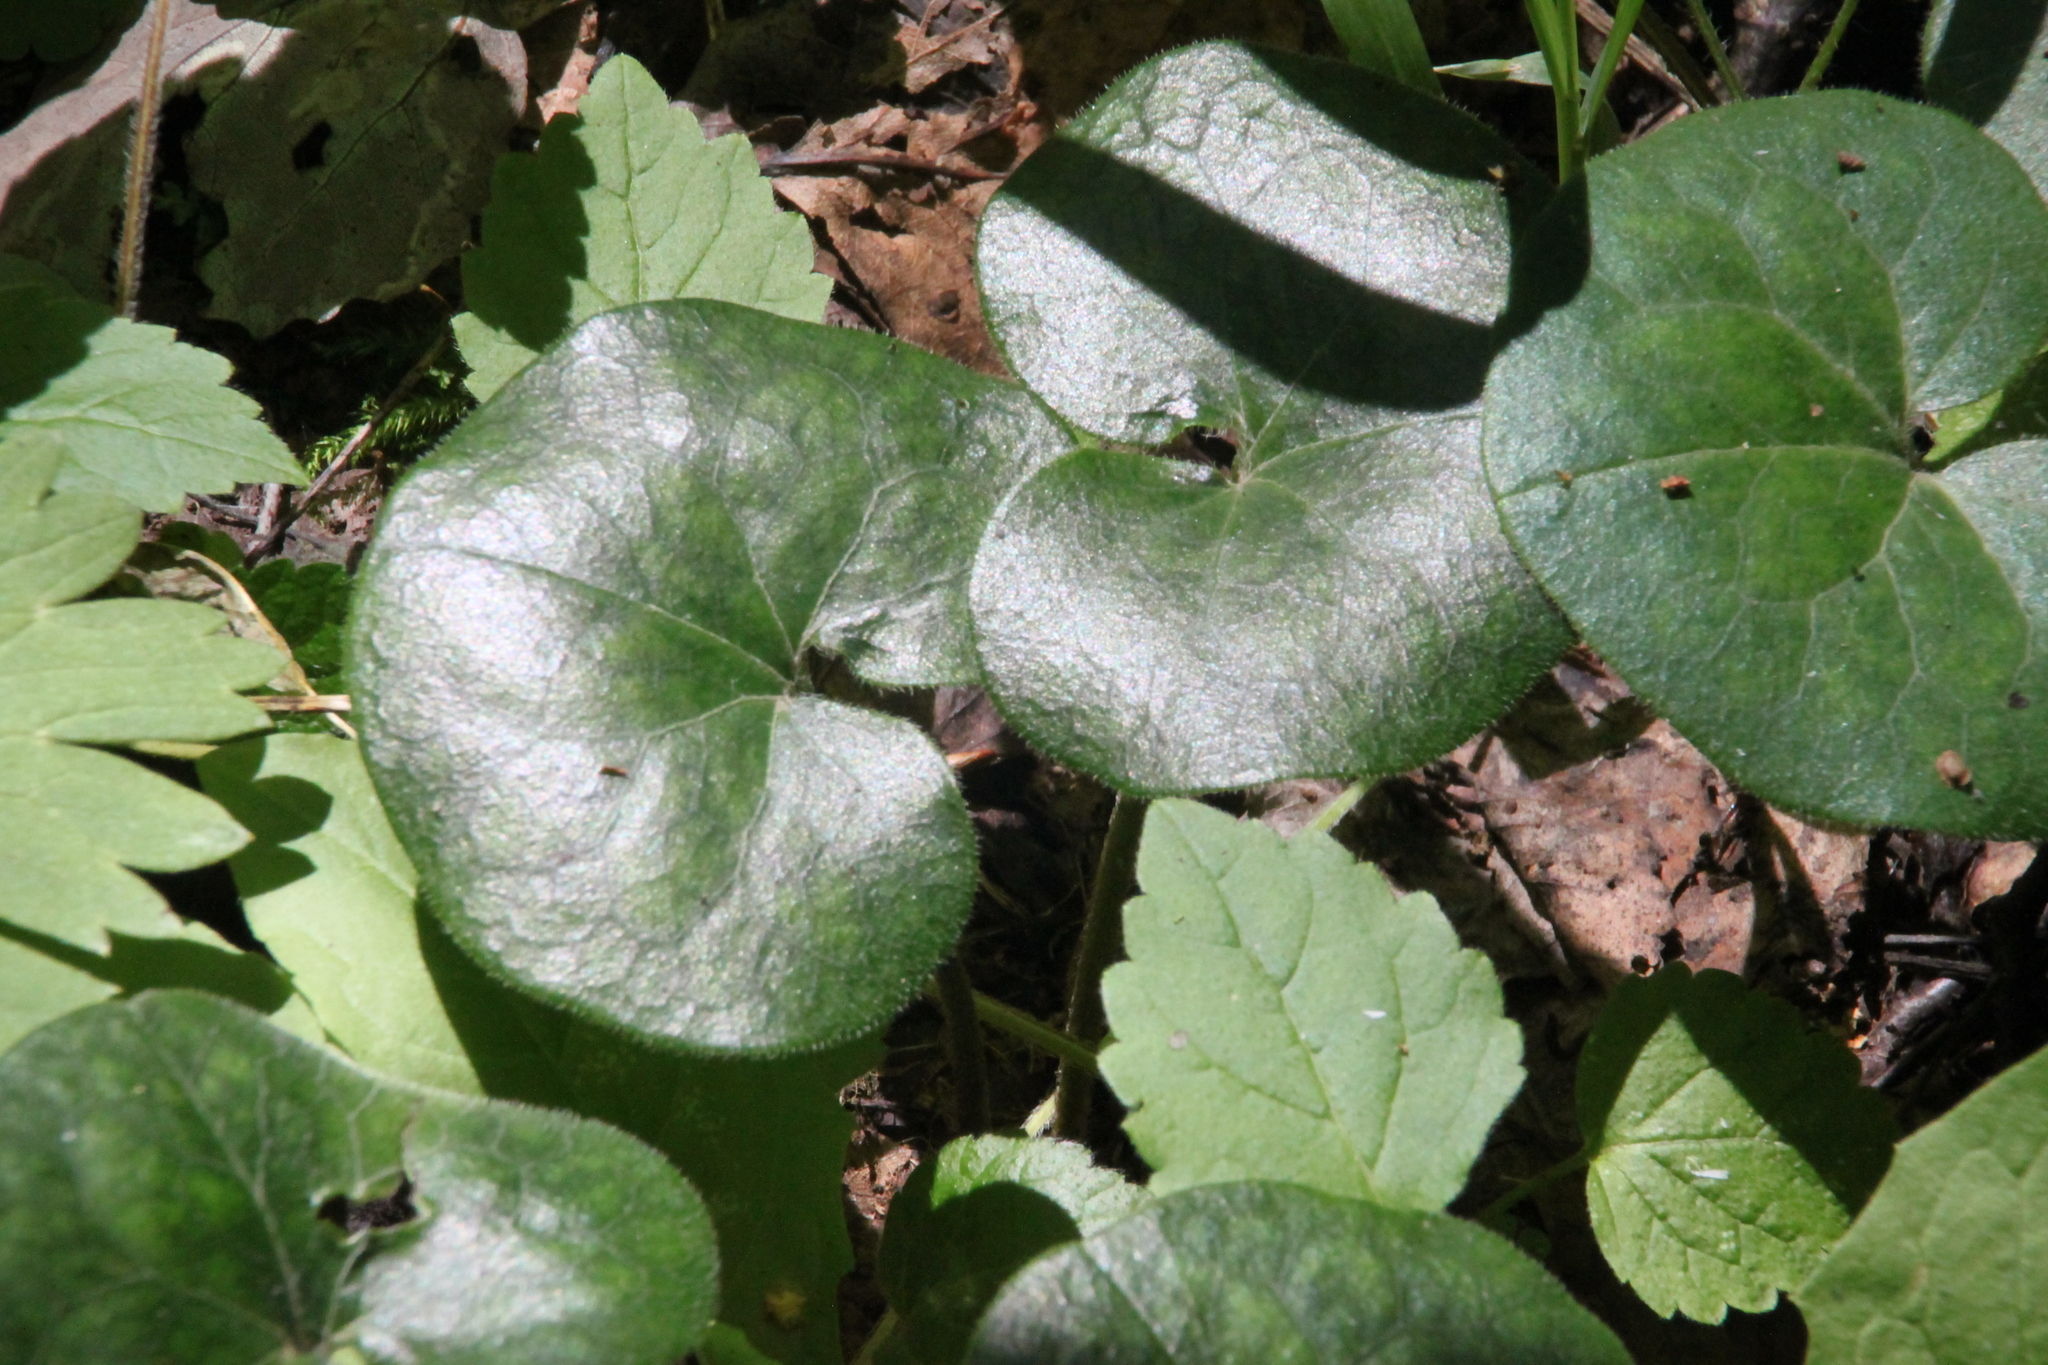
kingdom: Plantae
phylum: Tracheophyta
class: Magnoliopsida
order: Piperales
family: Aristolochiaceae
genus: Asarum
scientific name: Asarum europaeum
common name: Asarabacca
